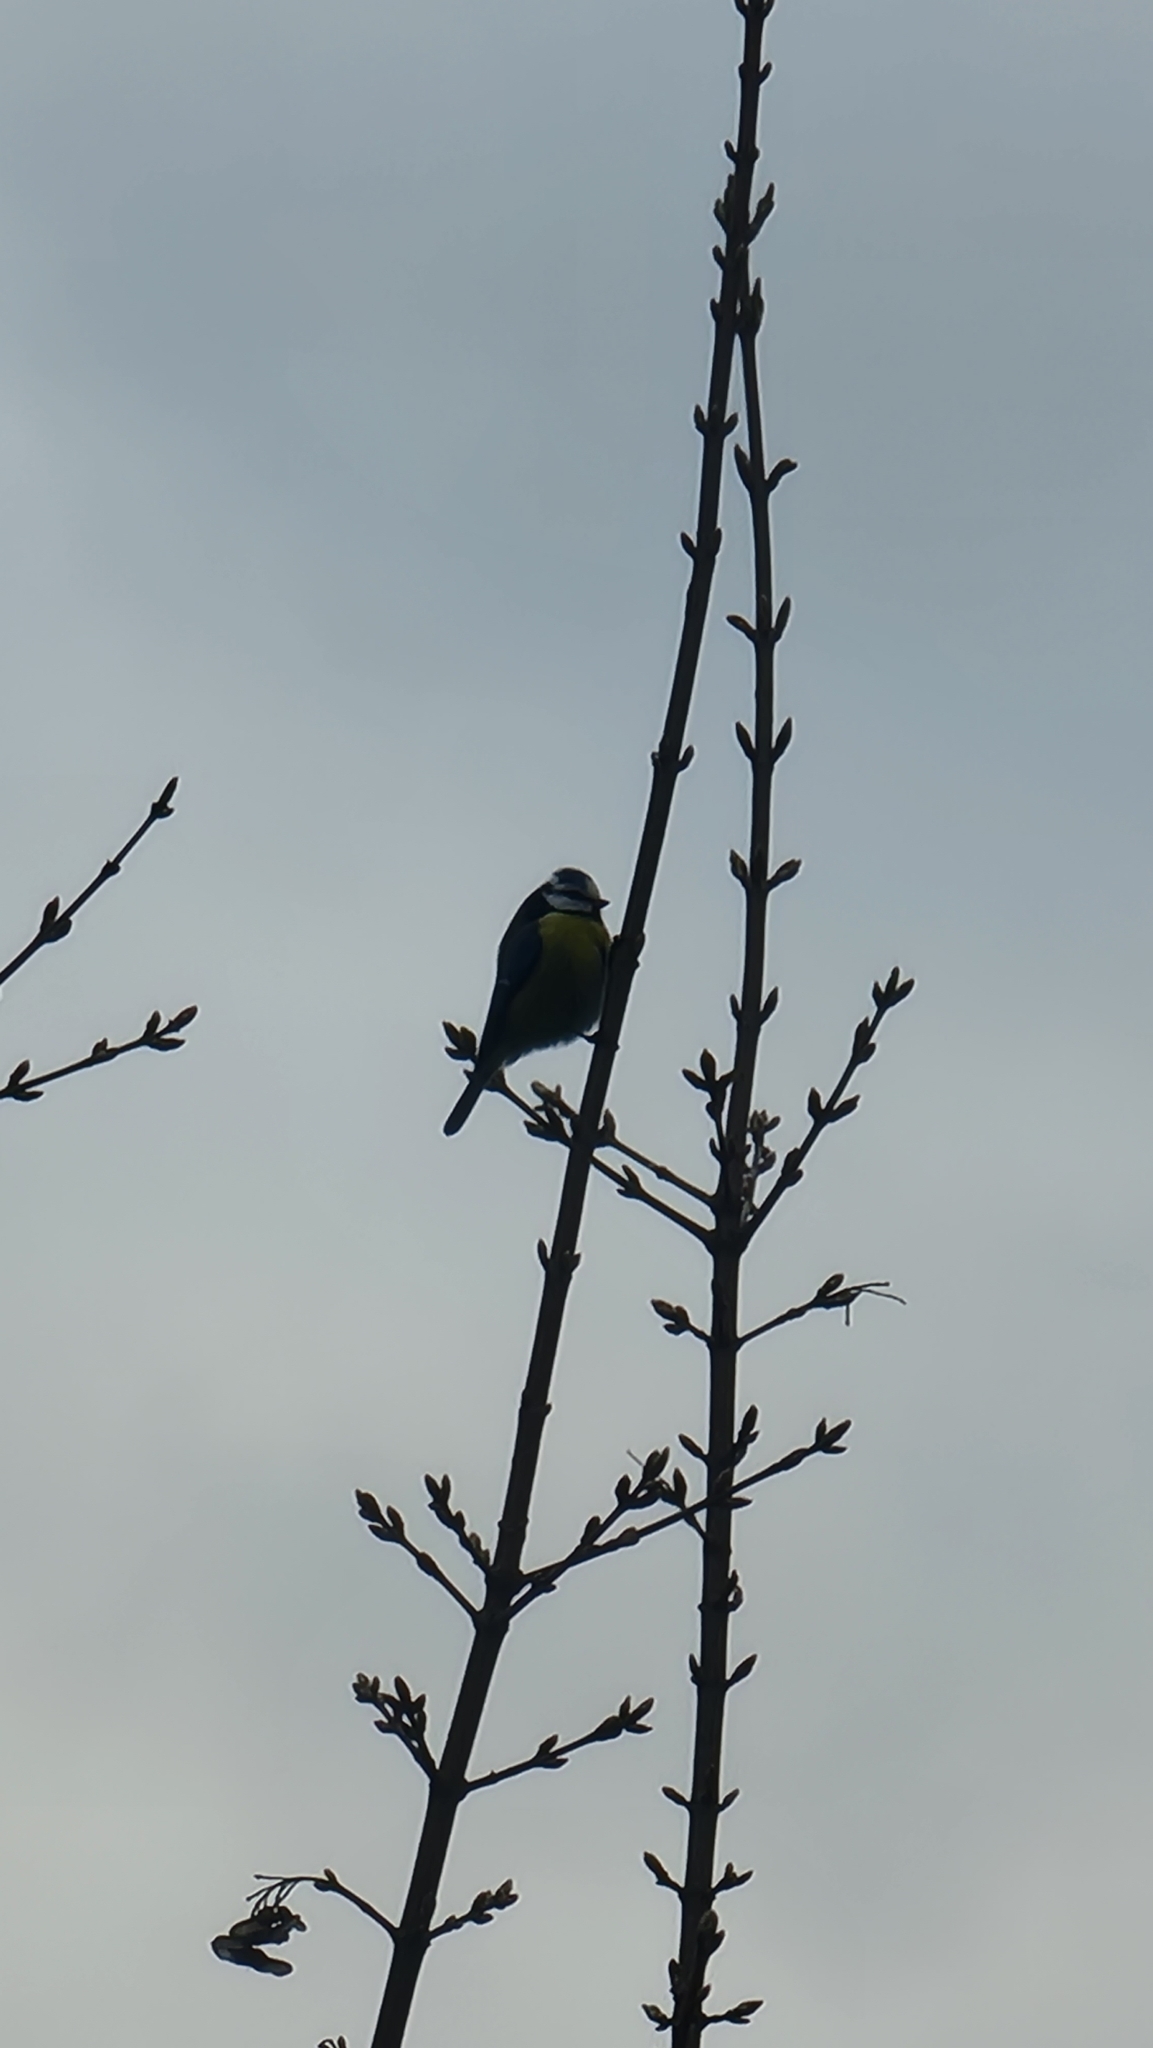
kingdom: Animalia
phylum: Chordata
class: Aves
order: Passeriformes
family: Paridae
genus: Cyanistes
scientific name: Cyanistes caeruleus
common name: Eurasian blue tit
